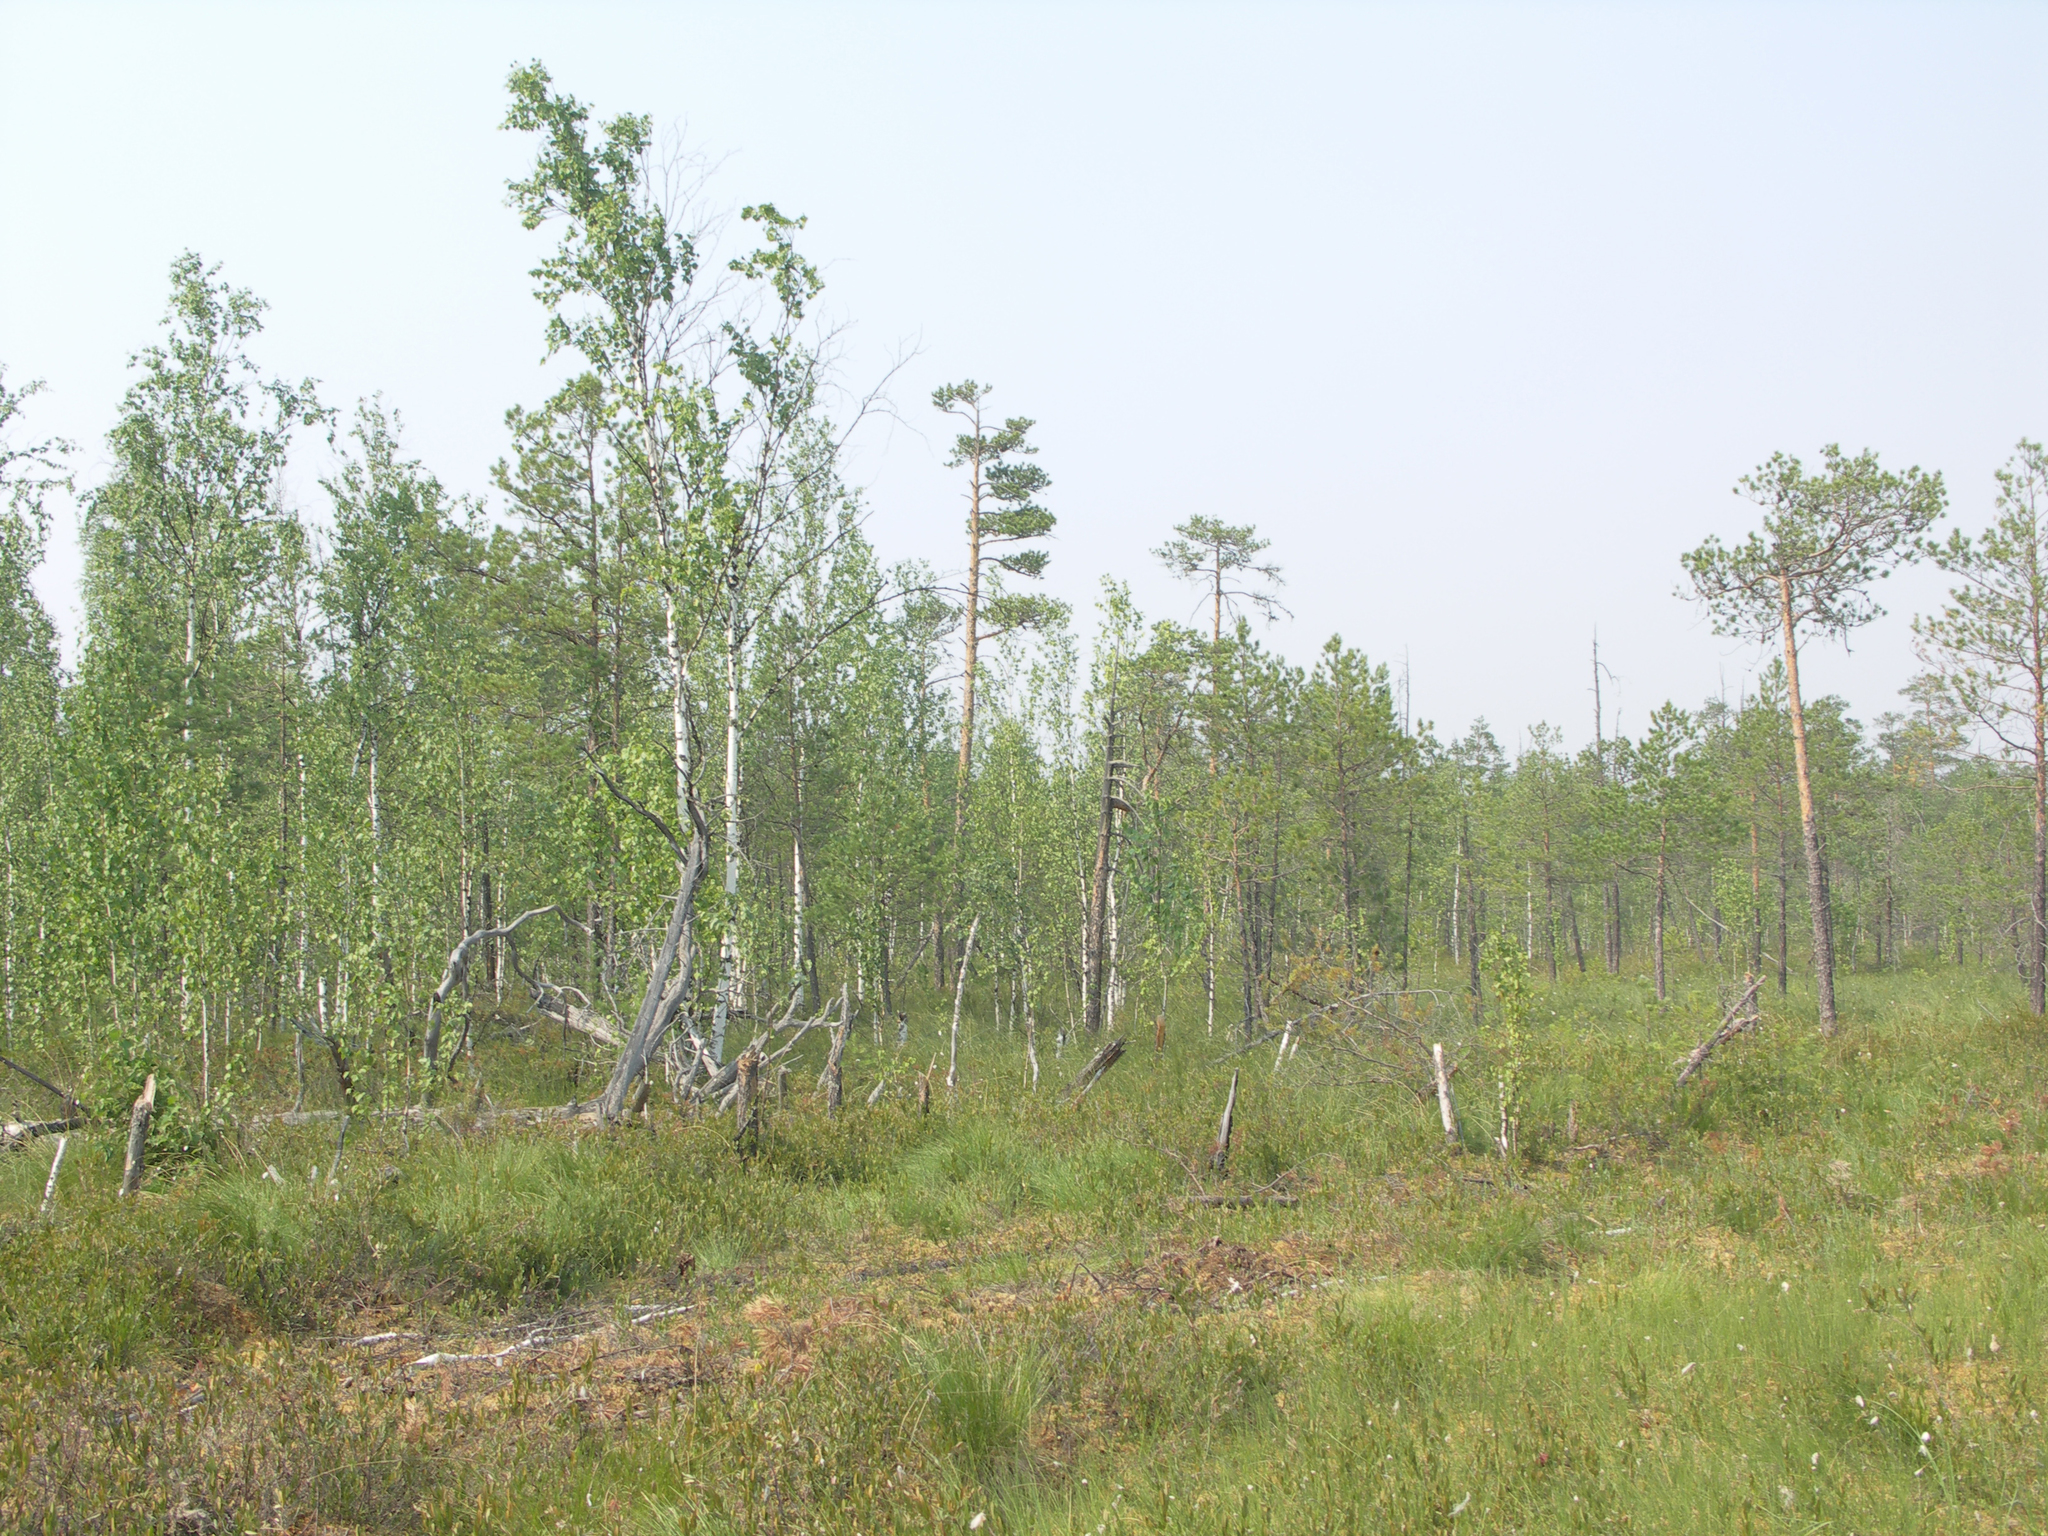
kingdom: Plantae
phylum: Tracheophyta
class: Pinopsida
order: Pinales
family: Pinaceae
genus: Pinus
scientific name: Pinus sylvestris
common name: Scots pine
